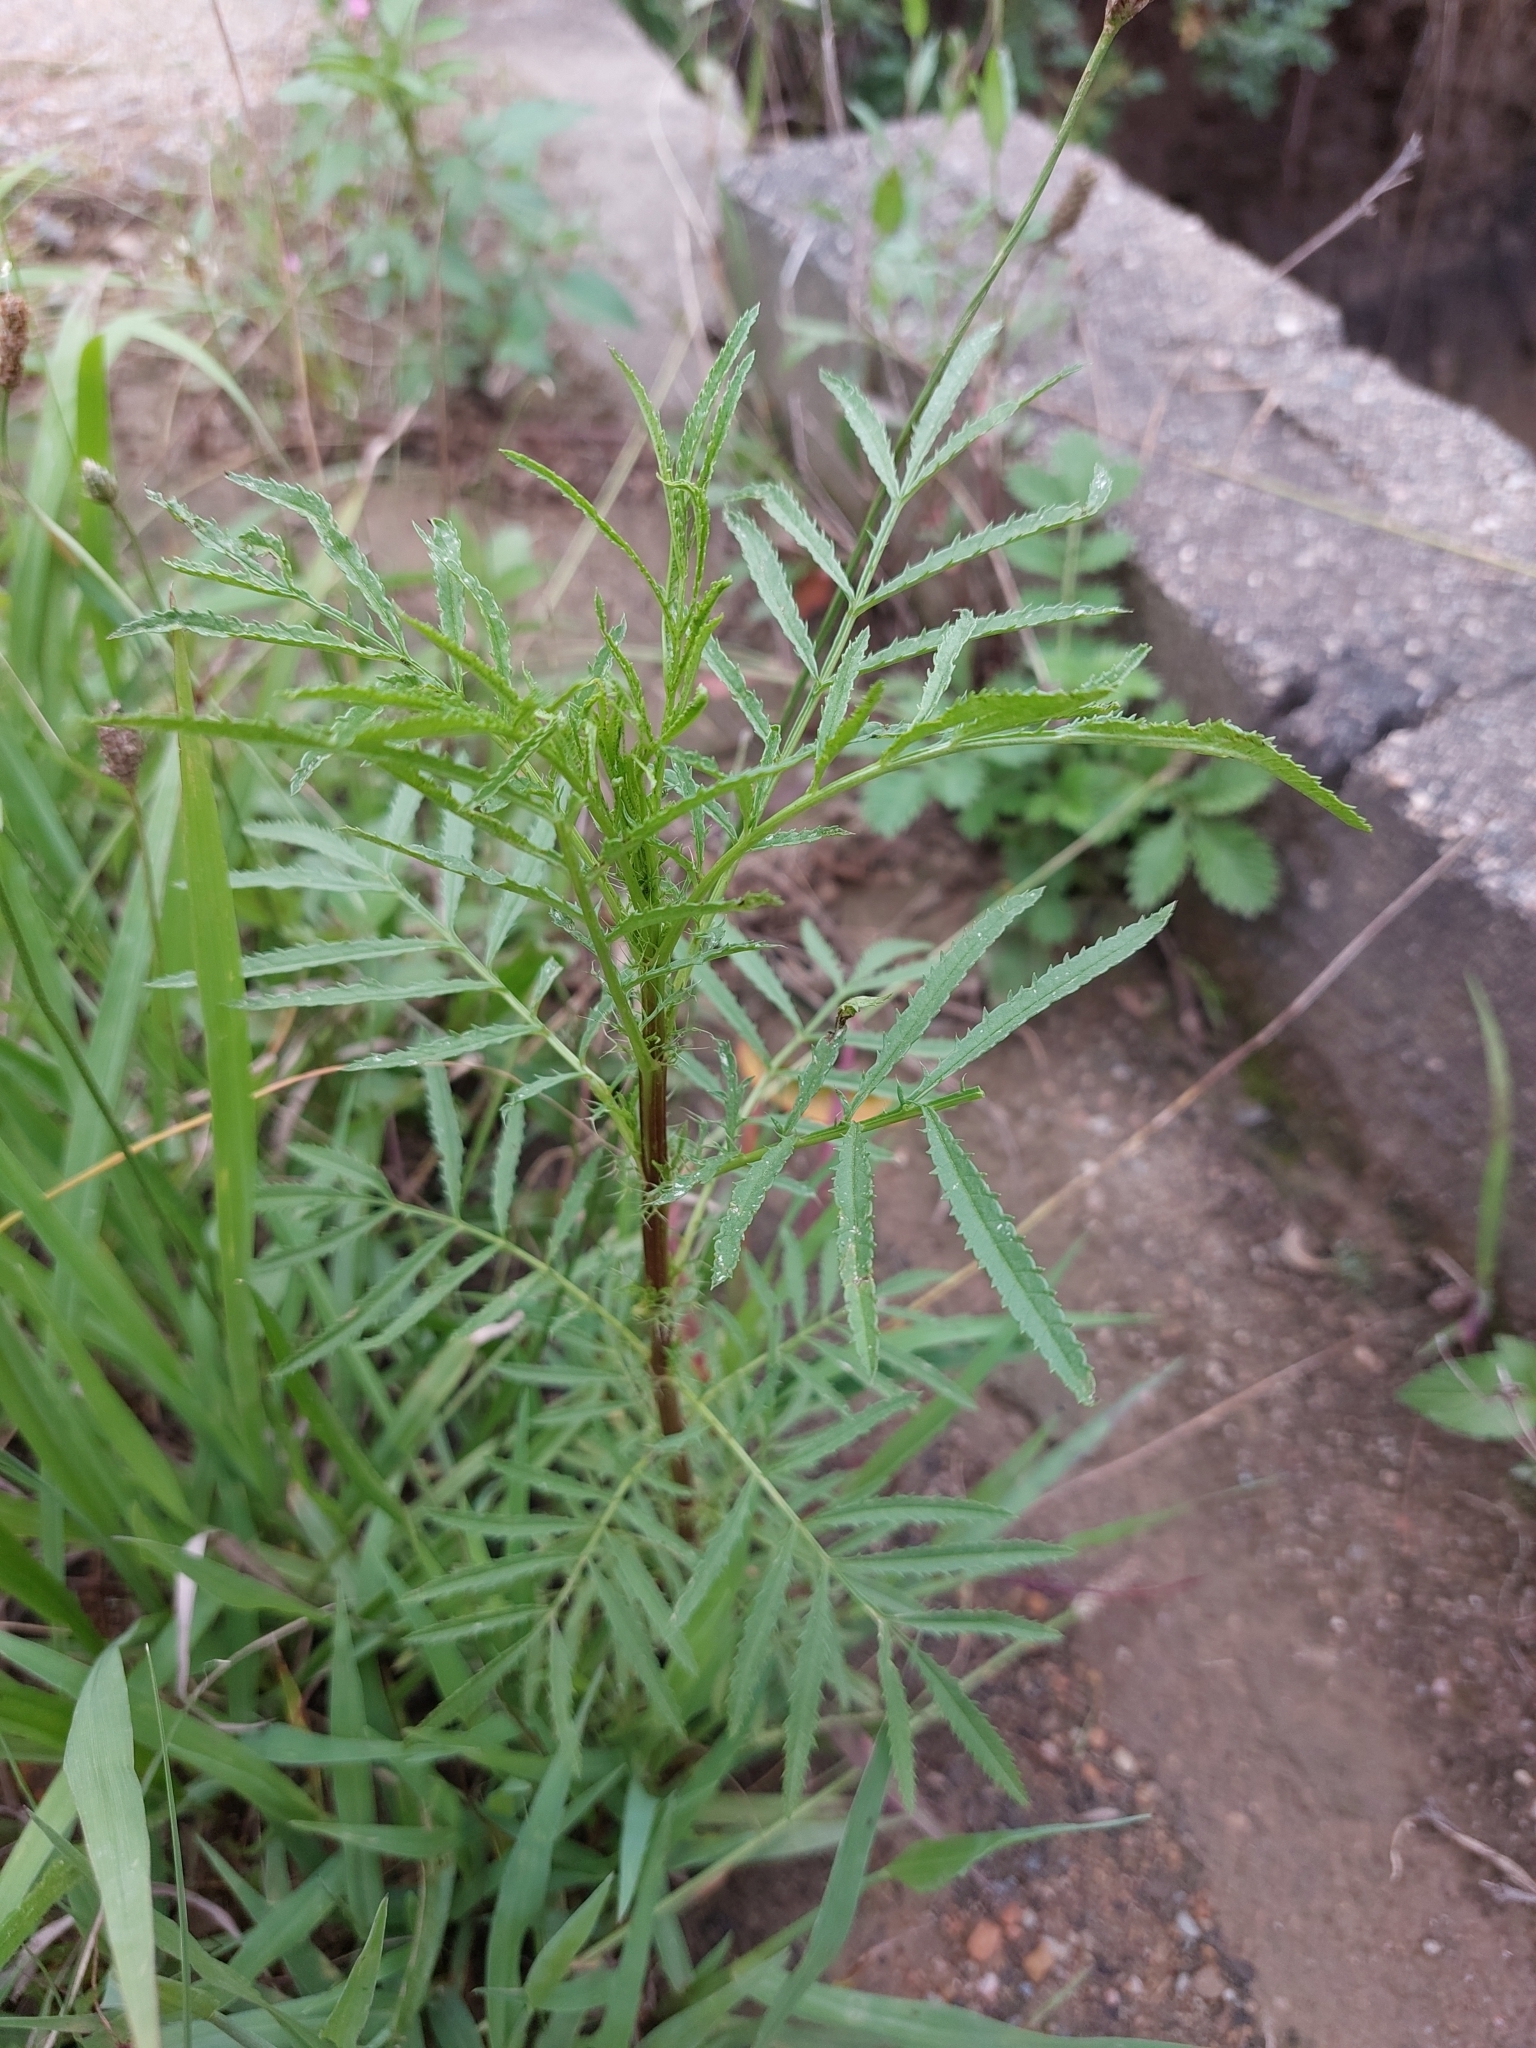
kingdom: Plantae
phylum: Tracheophyta
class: Magnoliopsida
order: Asterales
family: Asteraceae
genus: Tagetes
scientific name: Tagetes minuta
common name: Muster john henry
